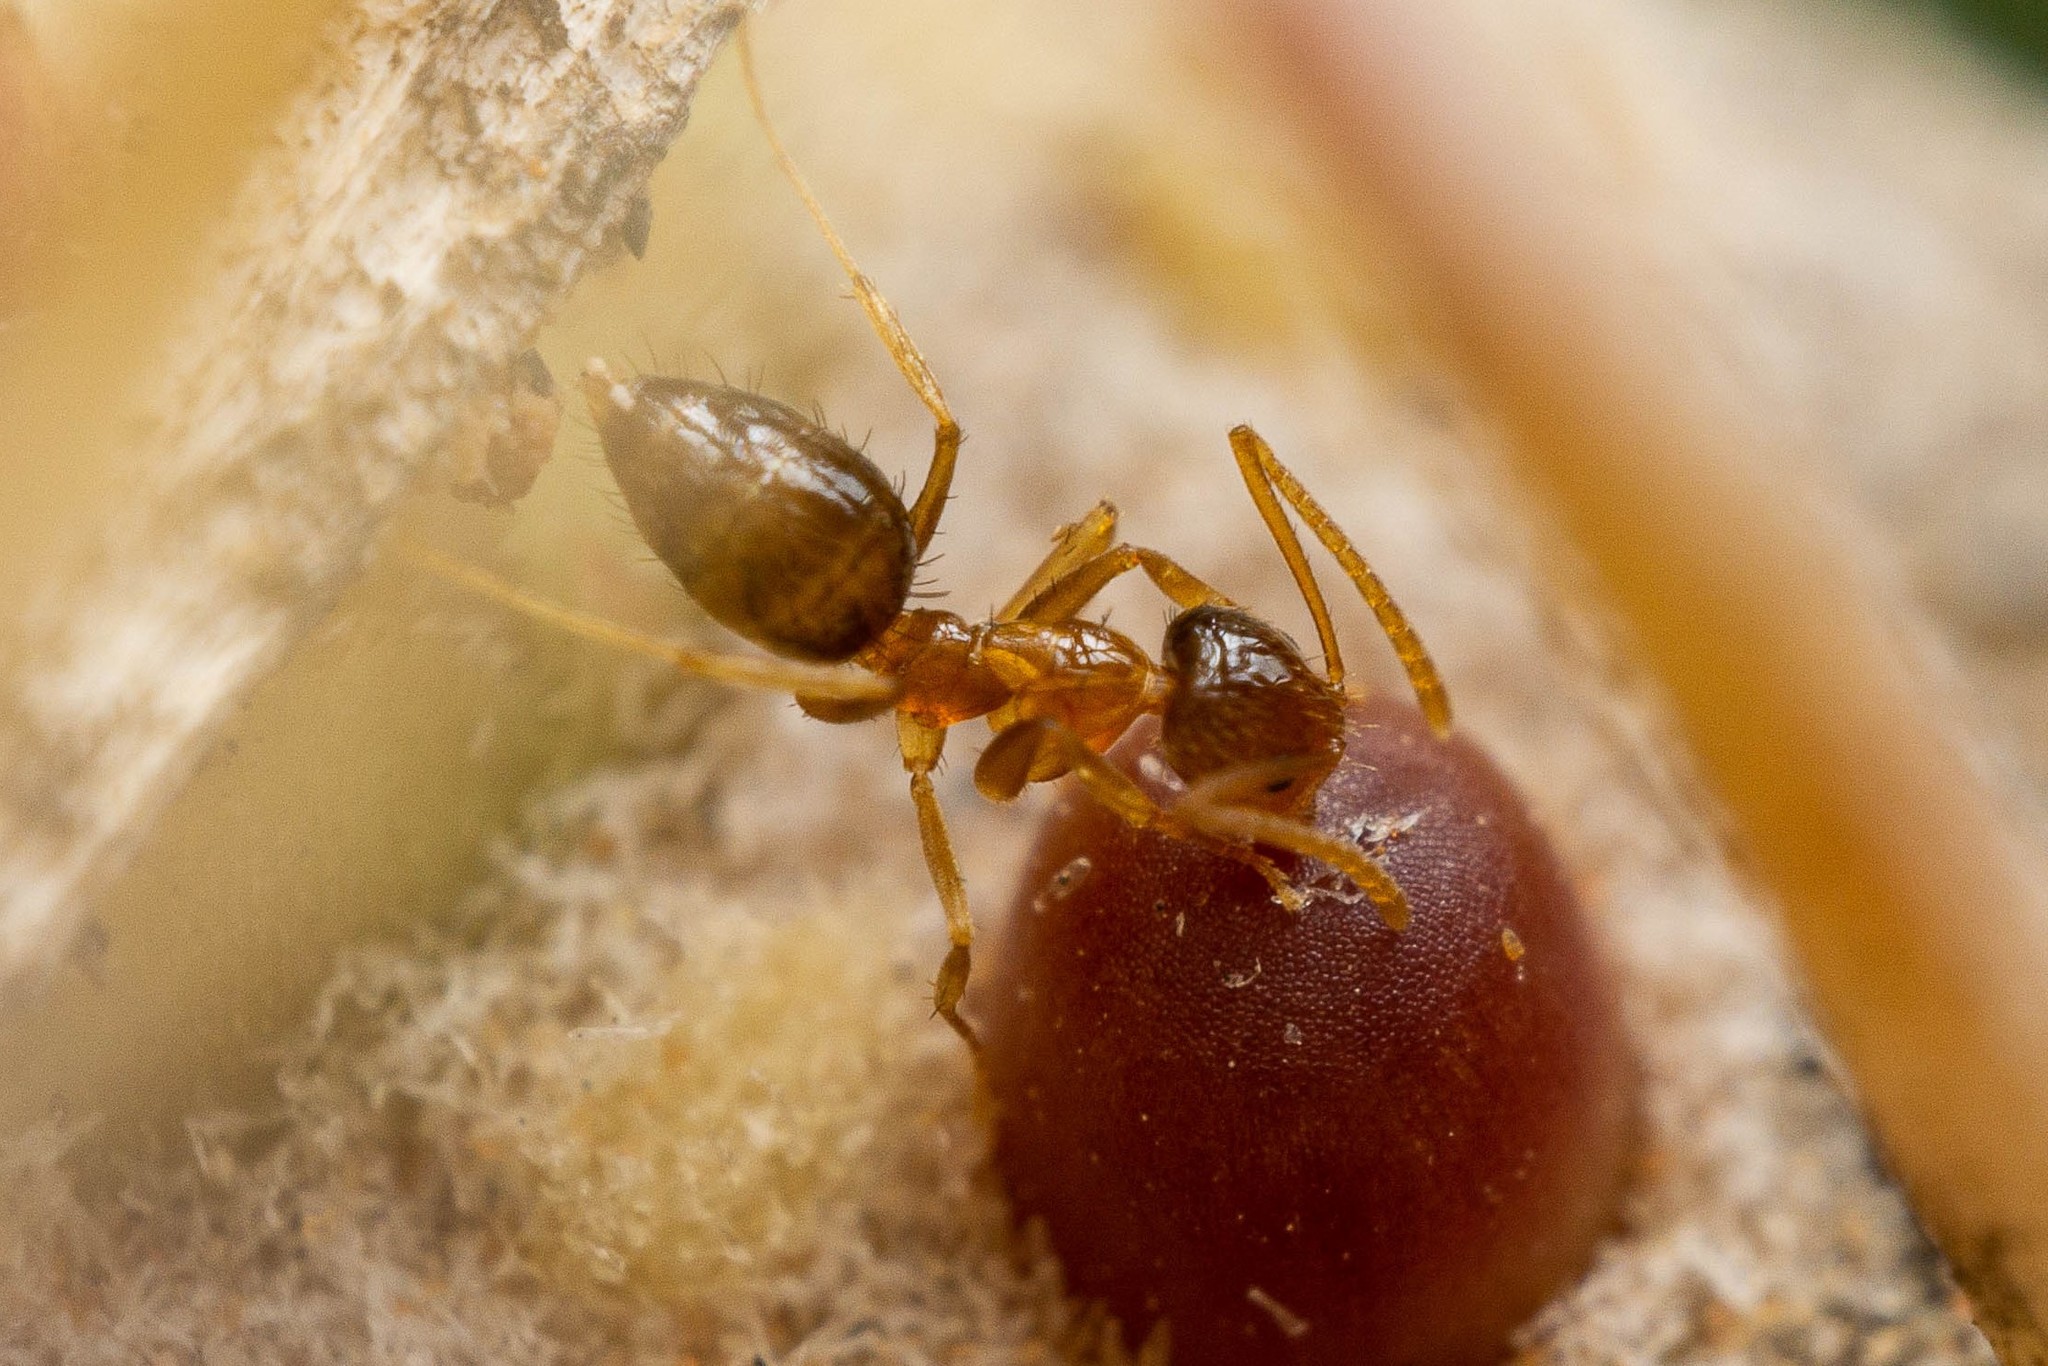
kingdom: Animalia
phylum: Arthropoda
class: Insecta
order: Hymenoptera
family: Formicidae
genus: Nylanderia
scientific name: Nylanderia terricola
